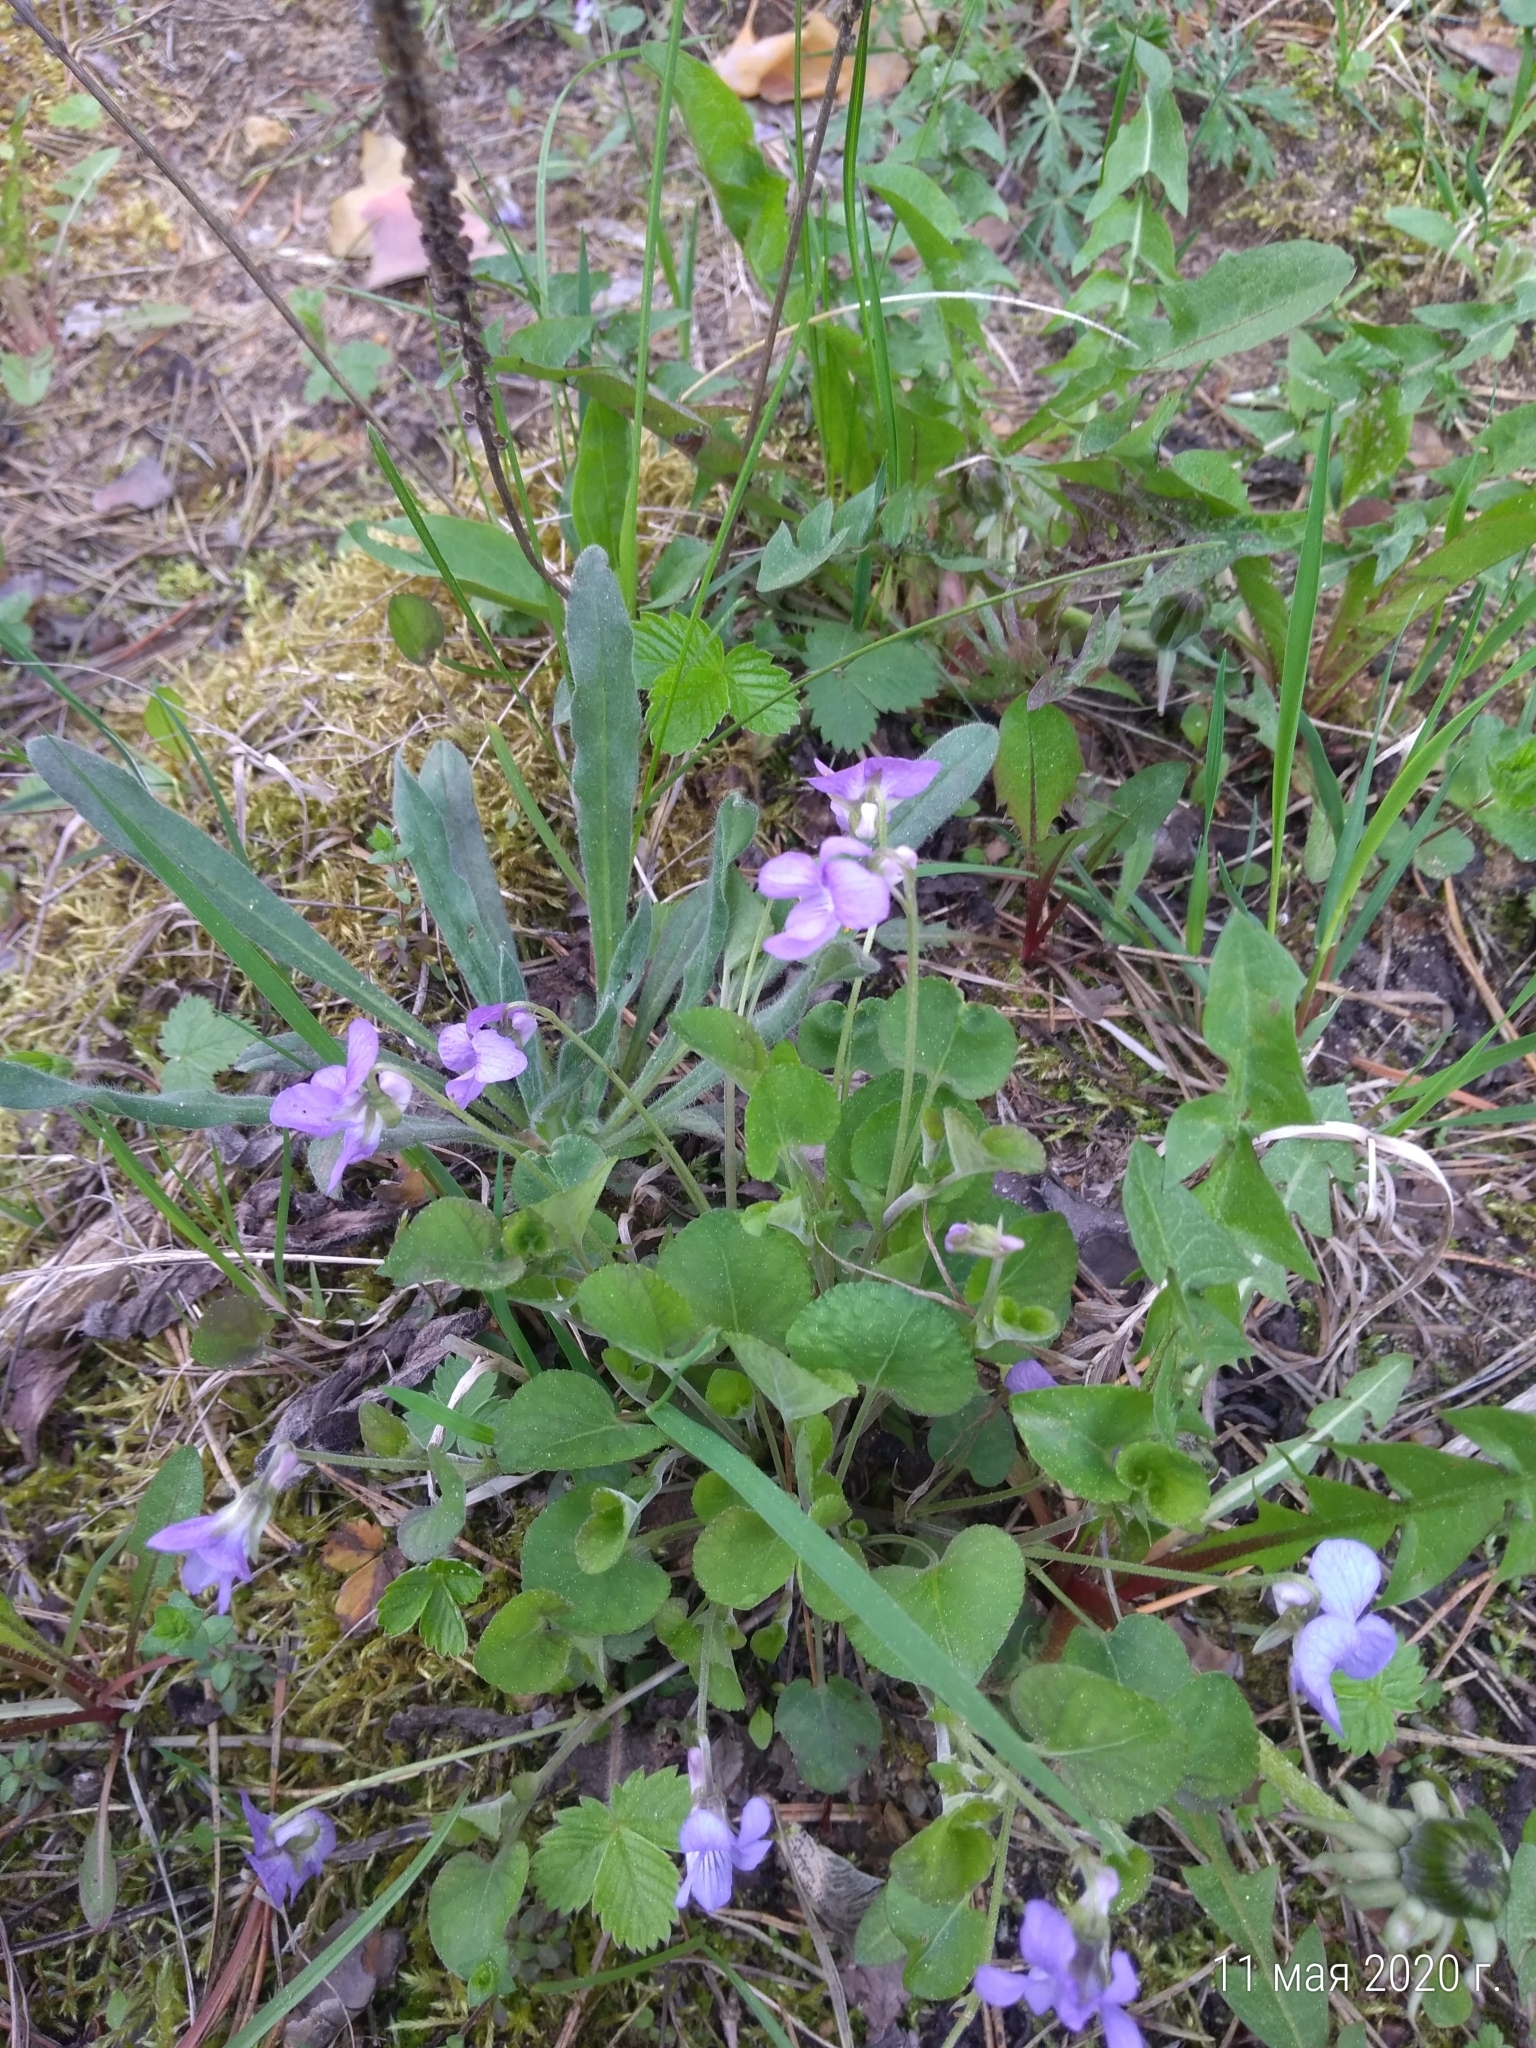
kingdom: Plantae
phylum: Tracheophyta
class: Magnoliopsida
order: Malpighiales
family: Violaceae
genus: Viola
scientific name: Viola rupestris
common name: Teesdale violet
